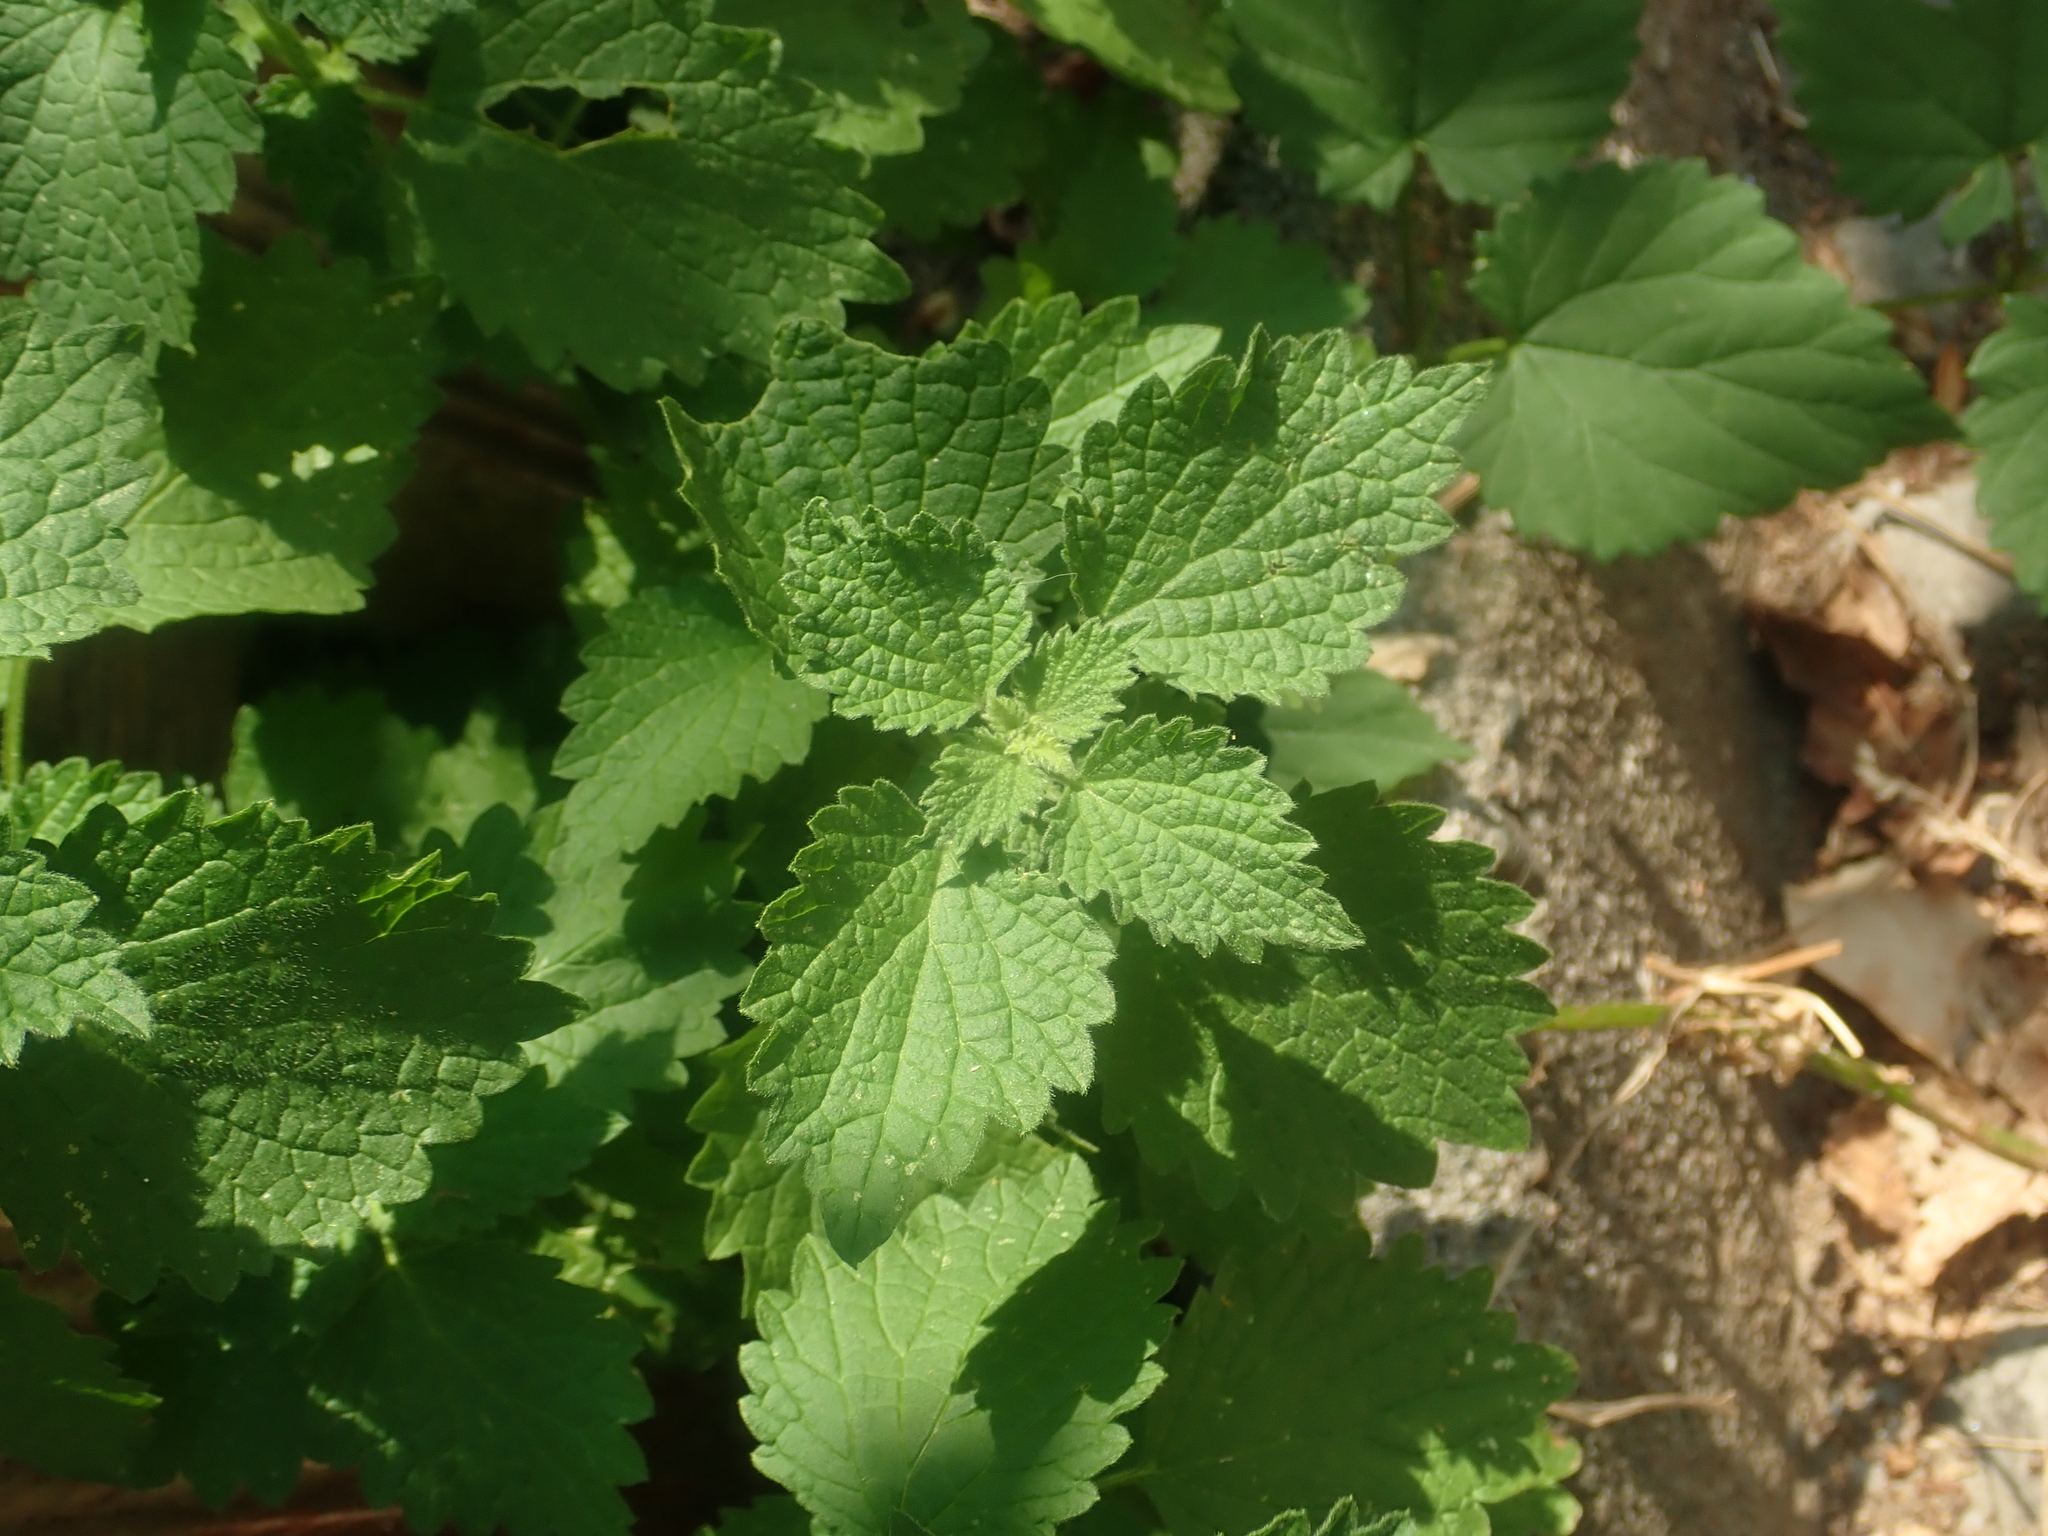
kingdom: Plantae
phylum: Tracheophyta
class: Magnoliopsida
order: Lamiales
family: Lamiaceae
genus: Ballota
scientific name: Ballota nigra
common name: Black horehound
